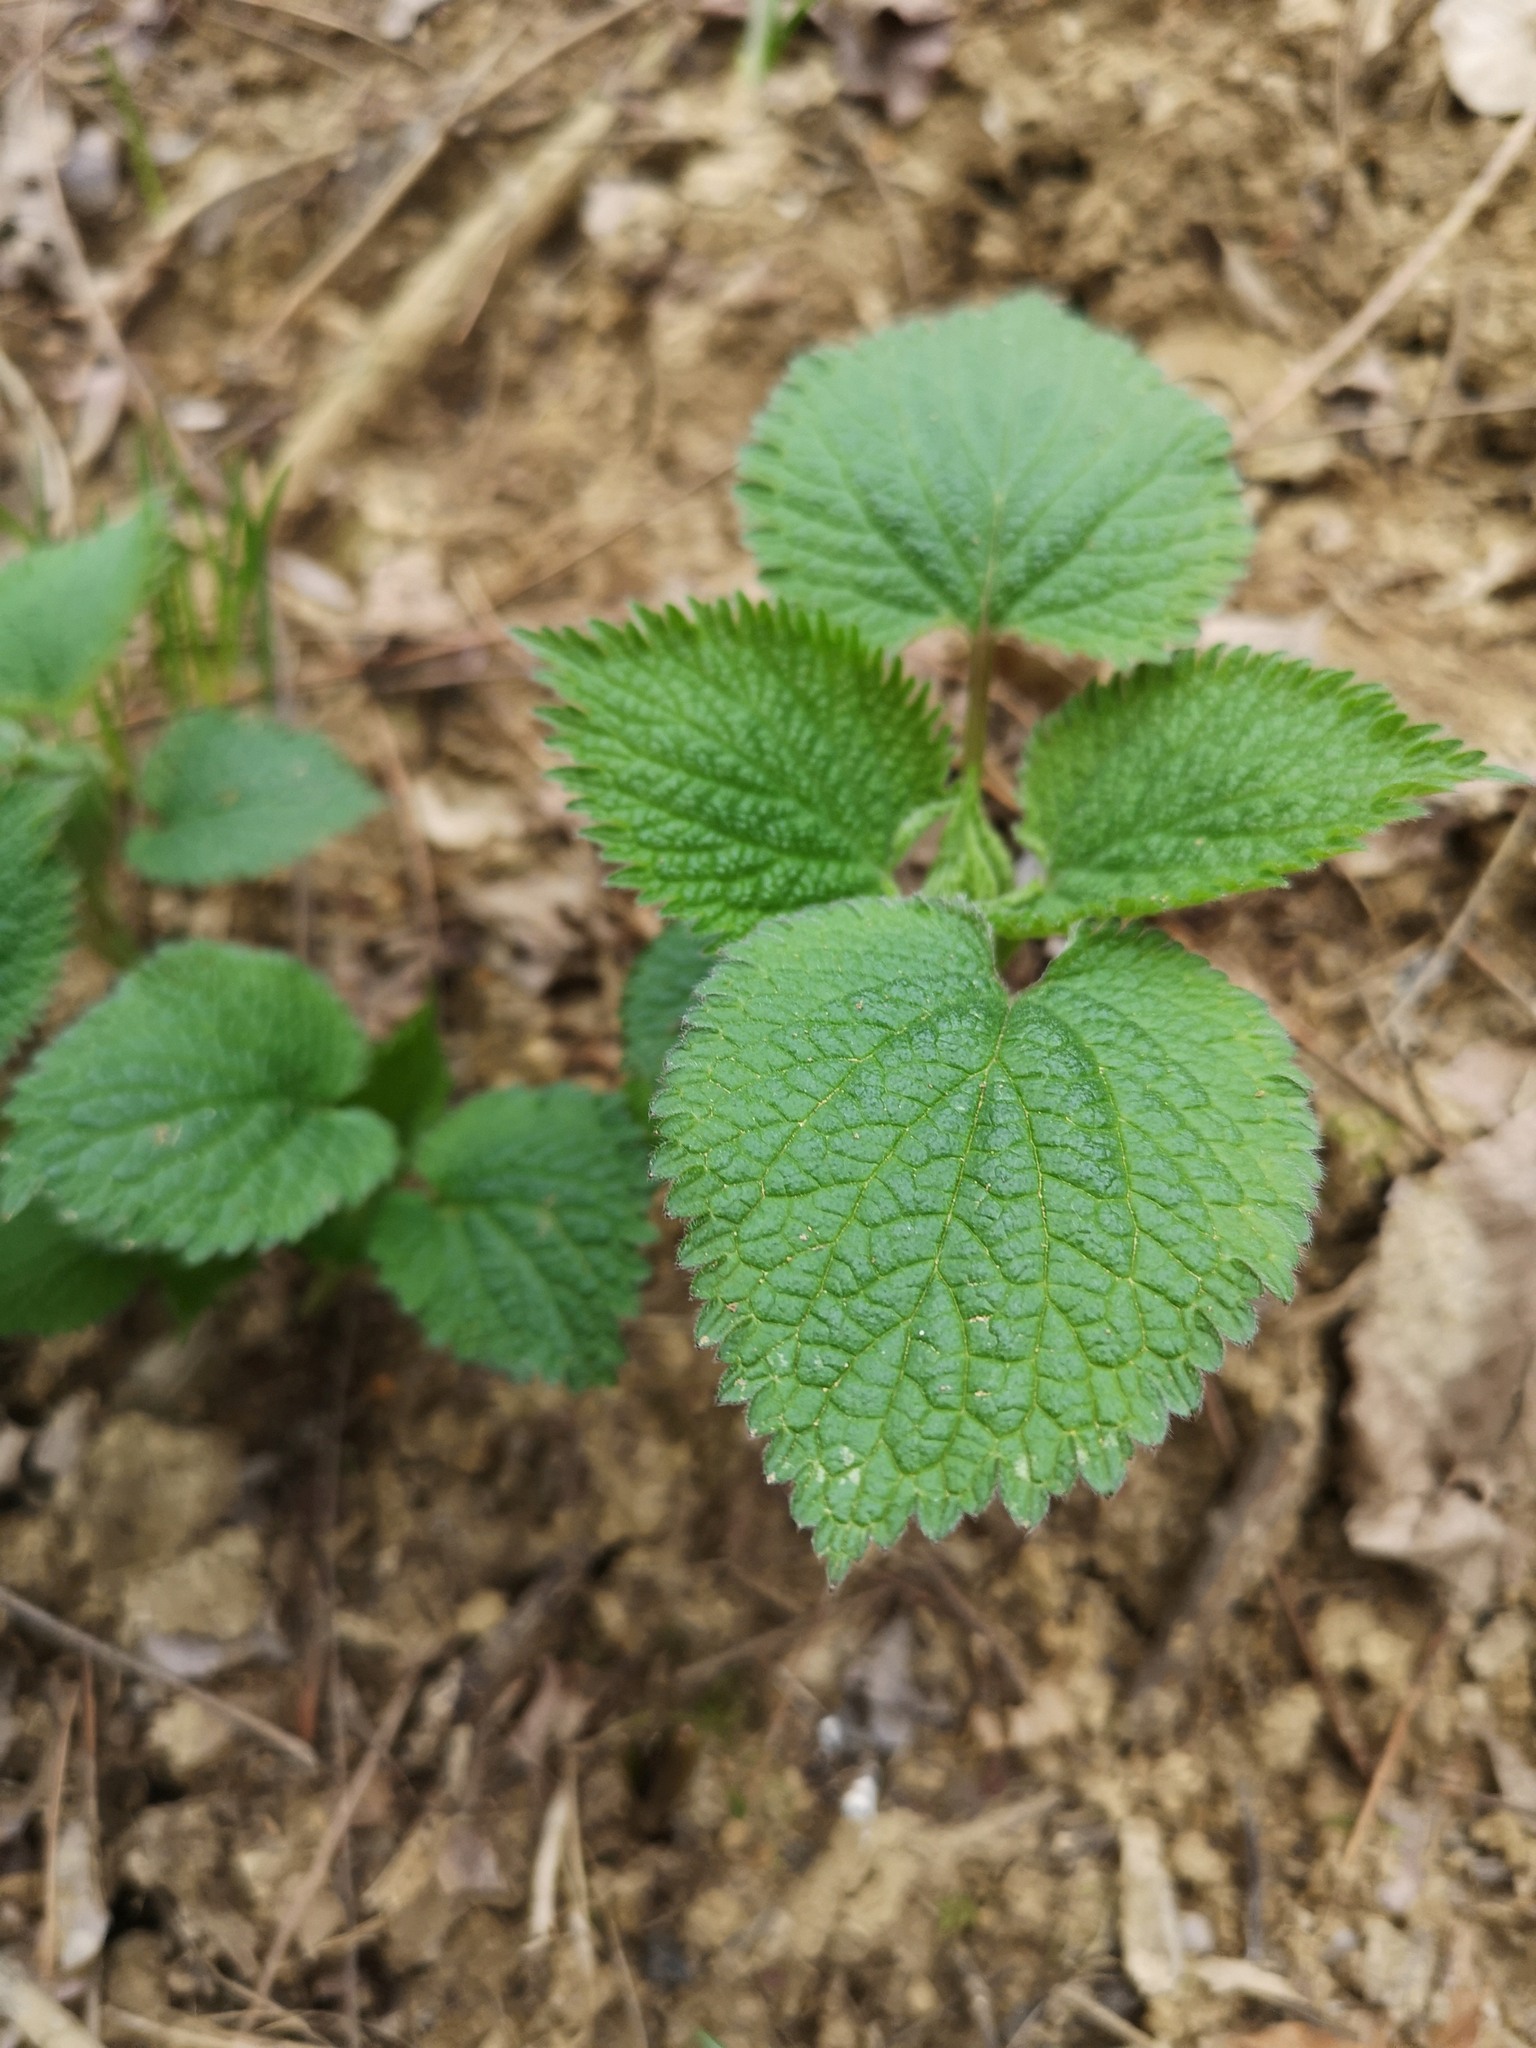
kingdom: Plantae
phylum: Tracheophyta
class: Magnoliopsida
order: Lamiales
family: Lamiaceae
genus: Lamium
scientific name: Lamium orvala
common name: Balm-leaved archangel
